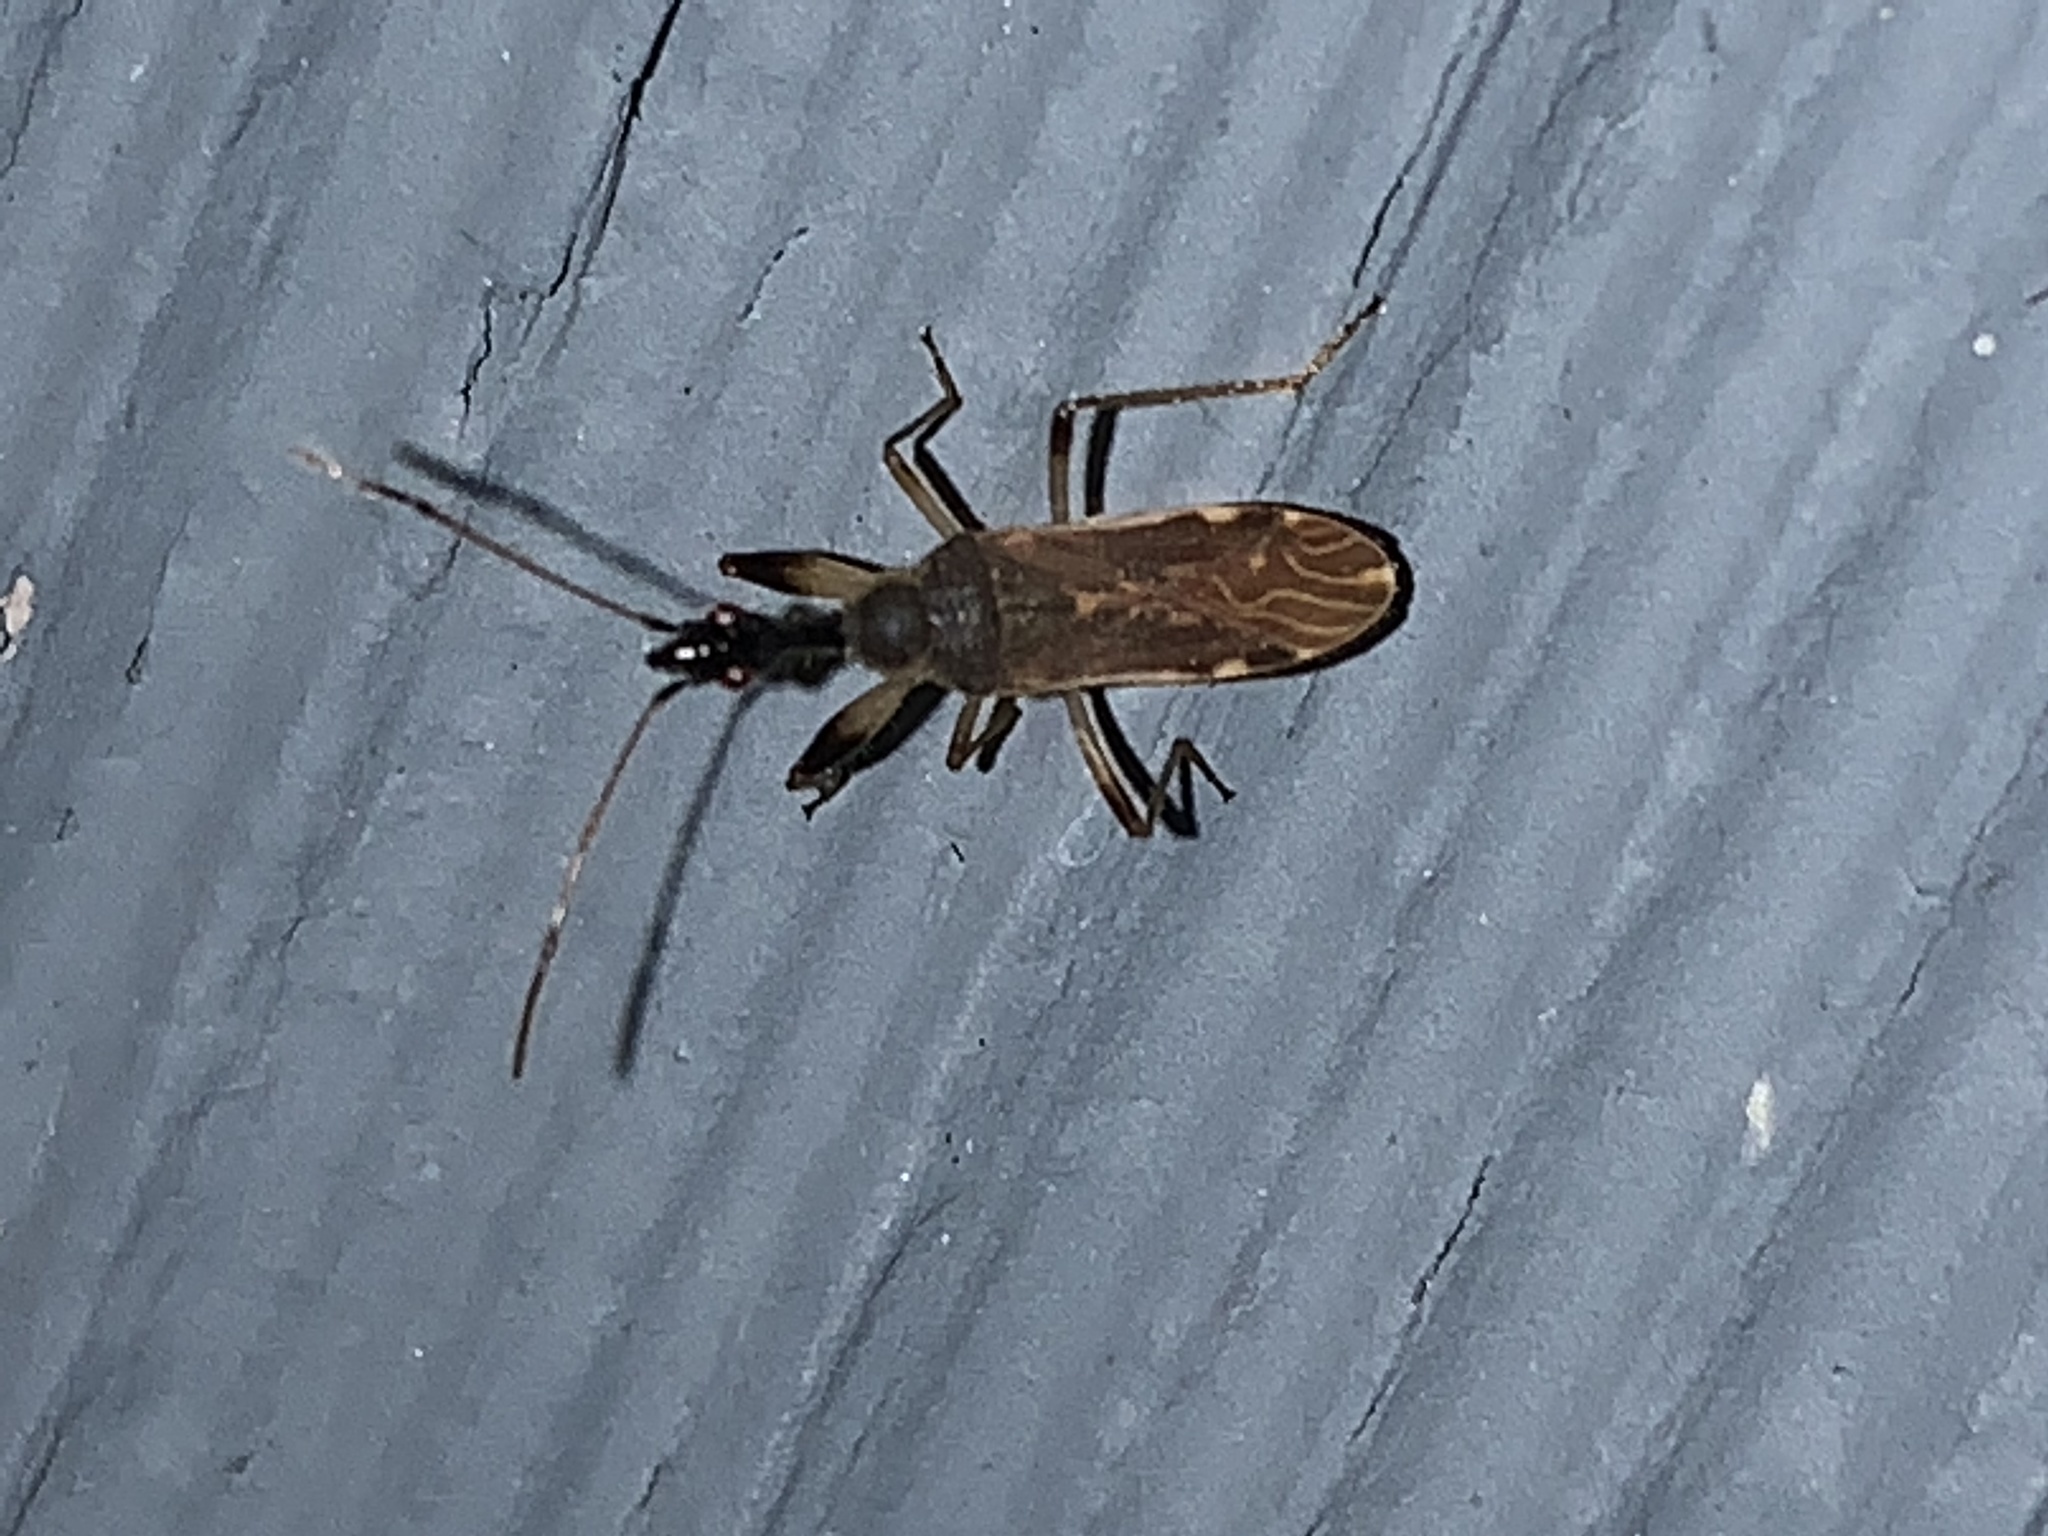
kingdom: Animalia
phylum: Arthropoda
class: Insecta
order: Hemiptera
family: Rhyparochromidae
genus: Myodocha
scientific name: Myodocha serripes
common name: Long-necked seed bug
